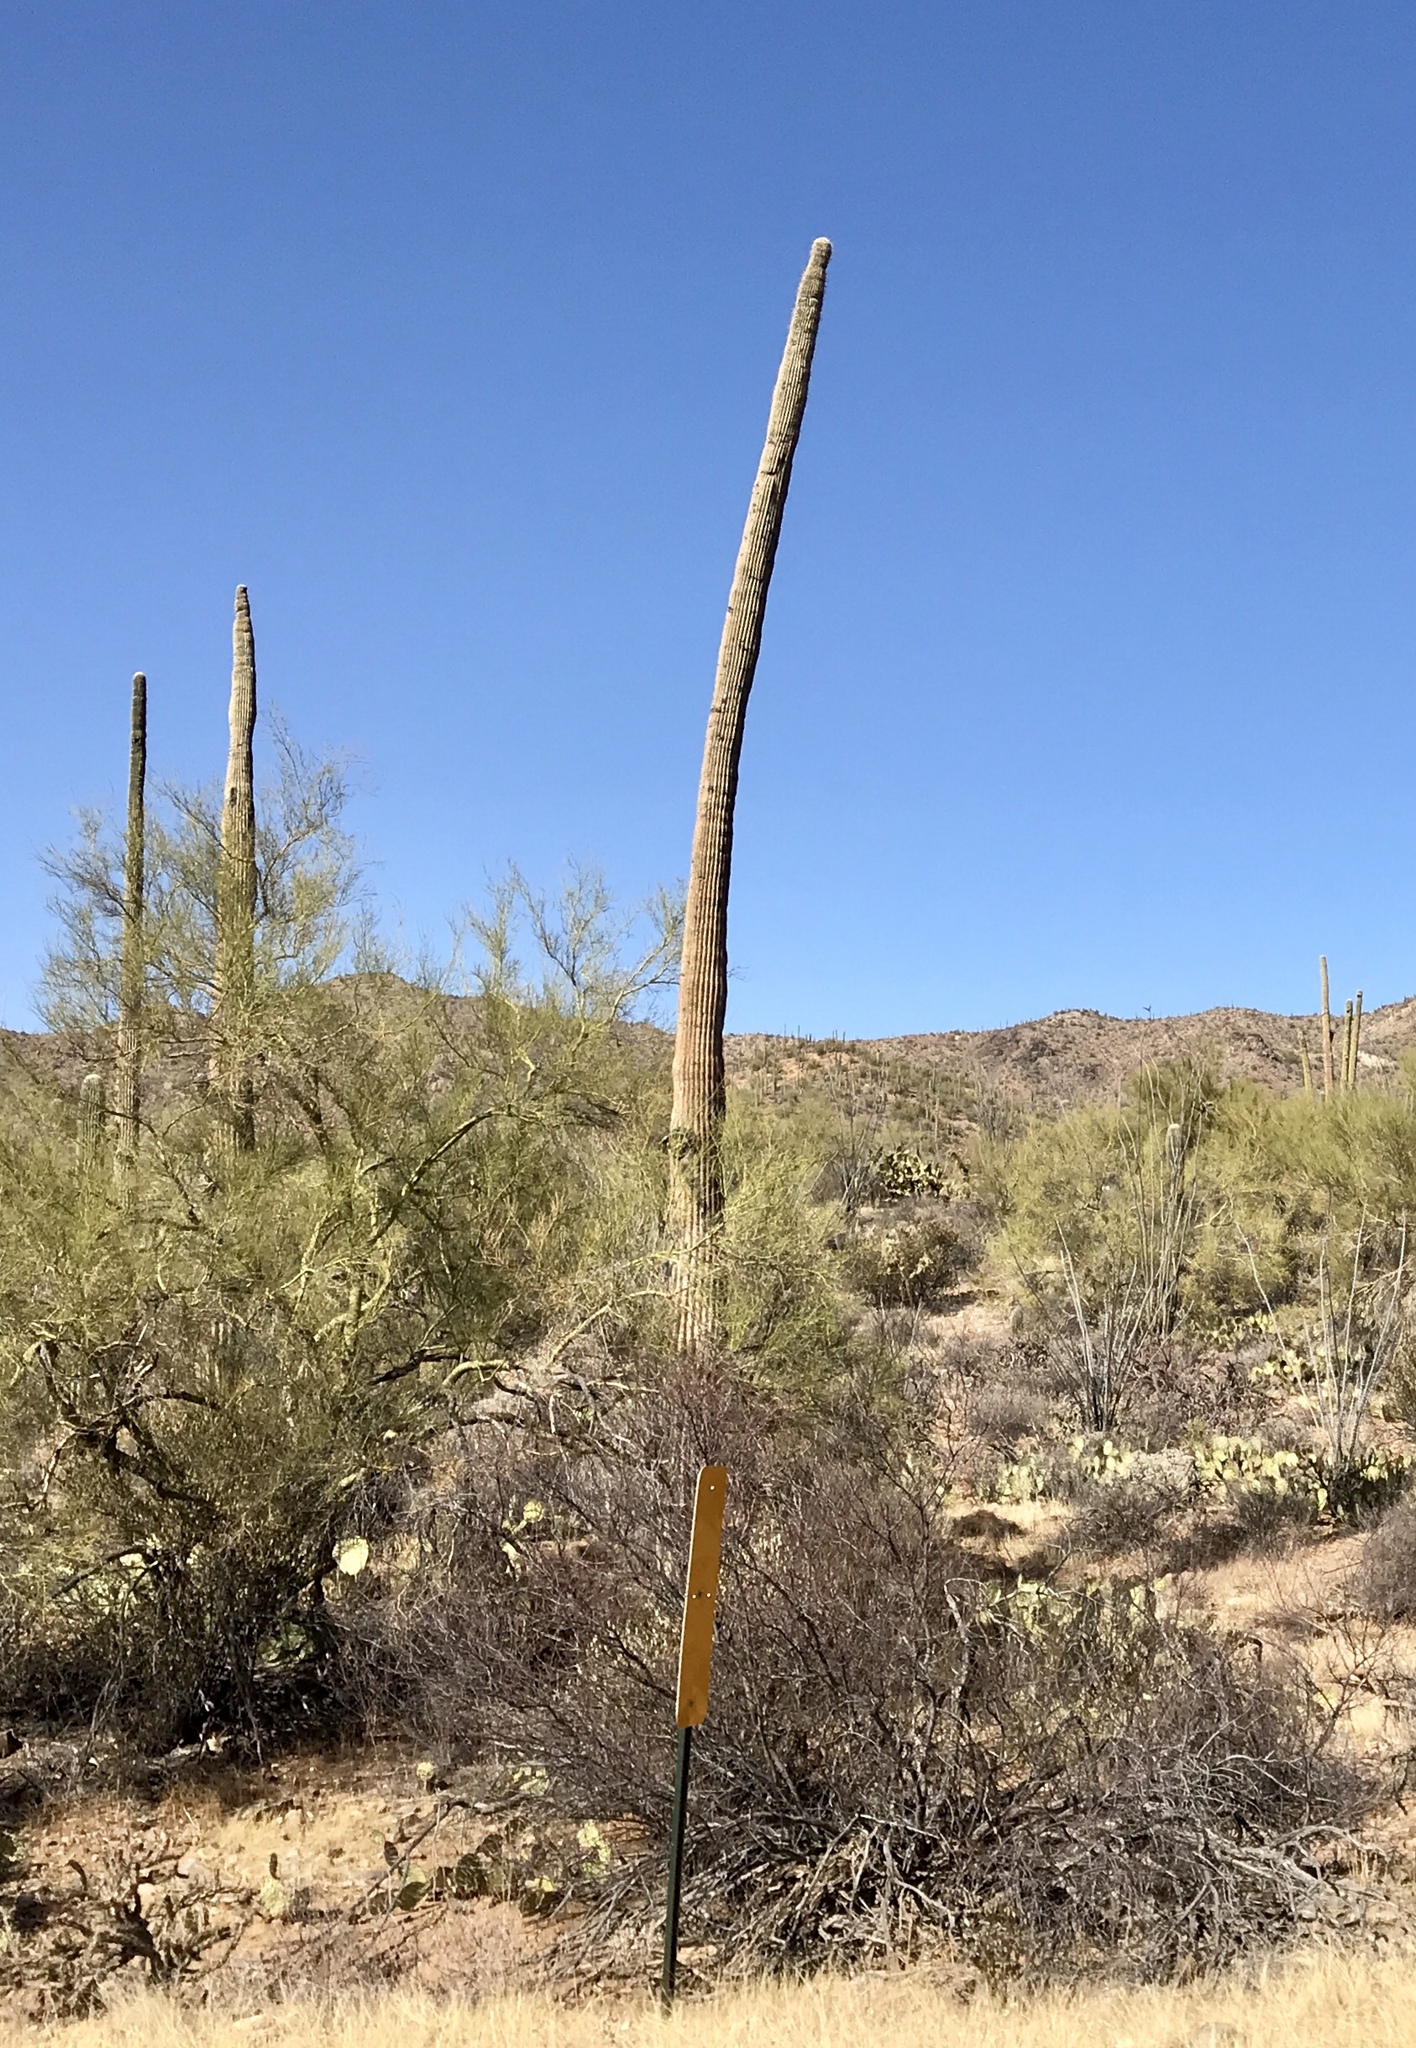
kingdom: Plantae
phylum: Tracheophyta
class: Magnoliopsida
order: Caryophyllales
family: Cactaceae
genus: Carnegiea
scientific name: Carnegiea gigantea
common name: Saguaro
